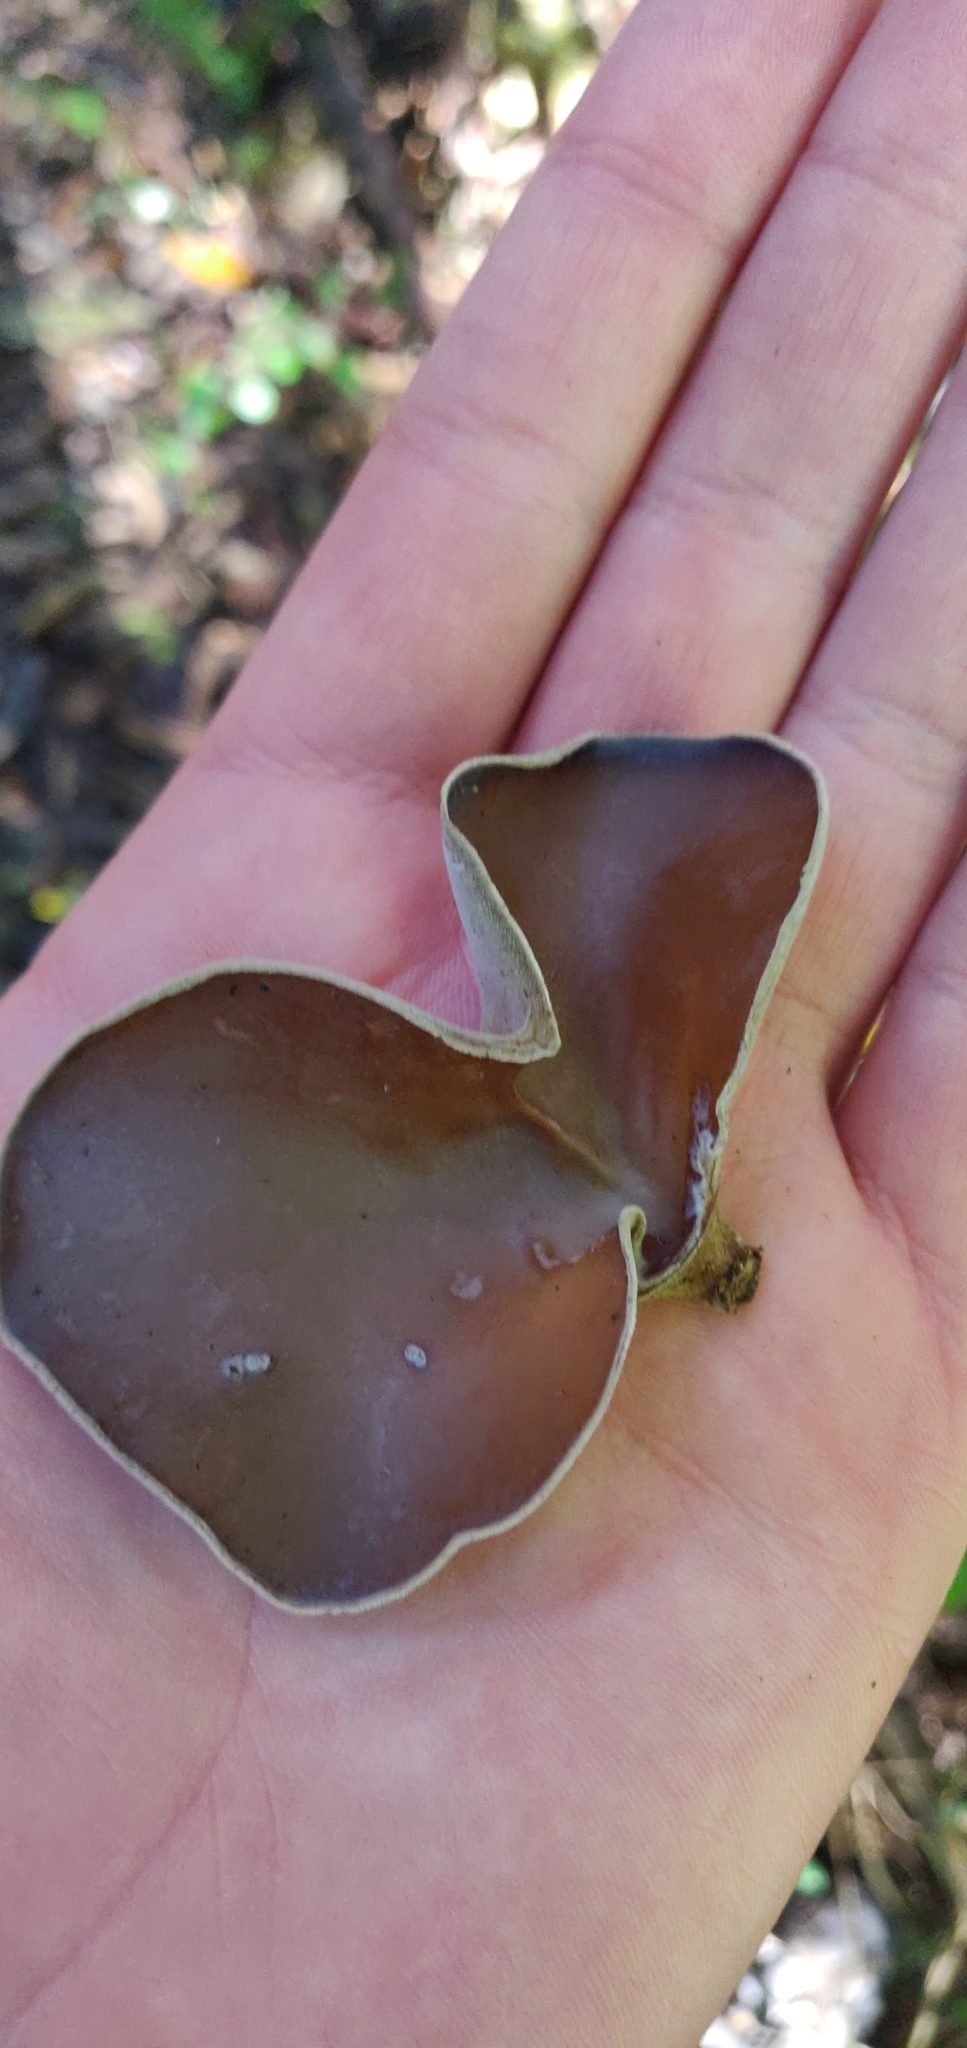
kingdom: Fungi
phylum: Basidiomycota
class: Agaricomycetes
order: Auriculariales
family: Auriculariaceae
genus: Auricularia
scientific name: Auricularia cornea
